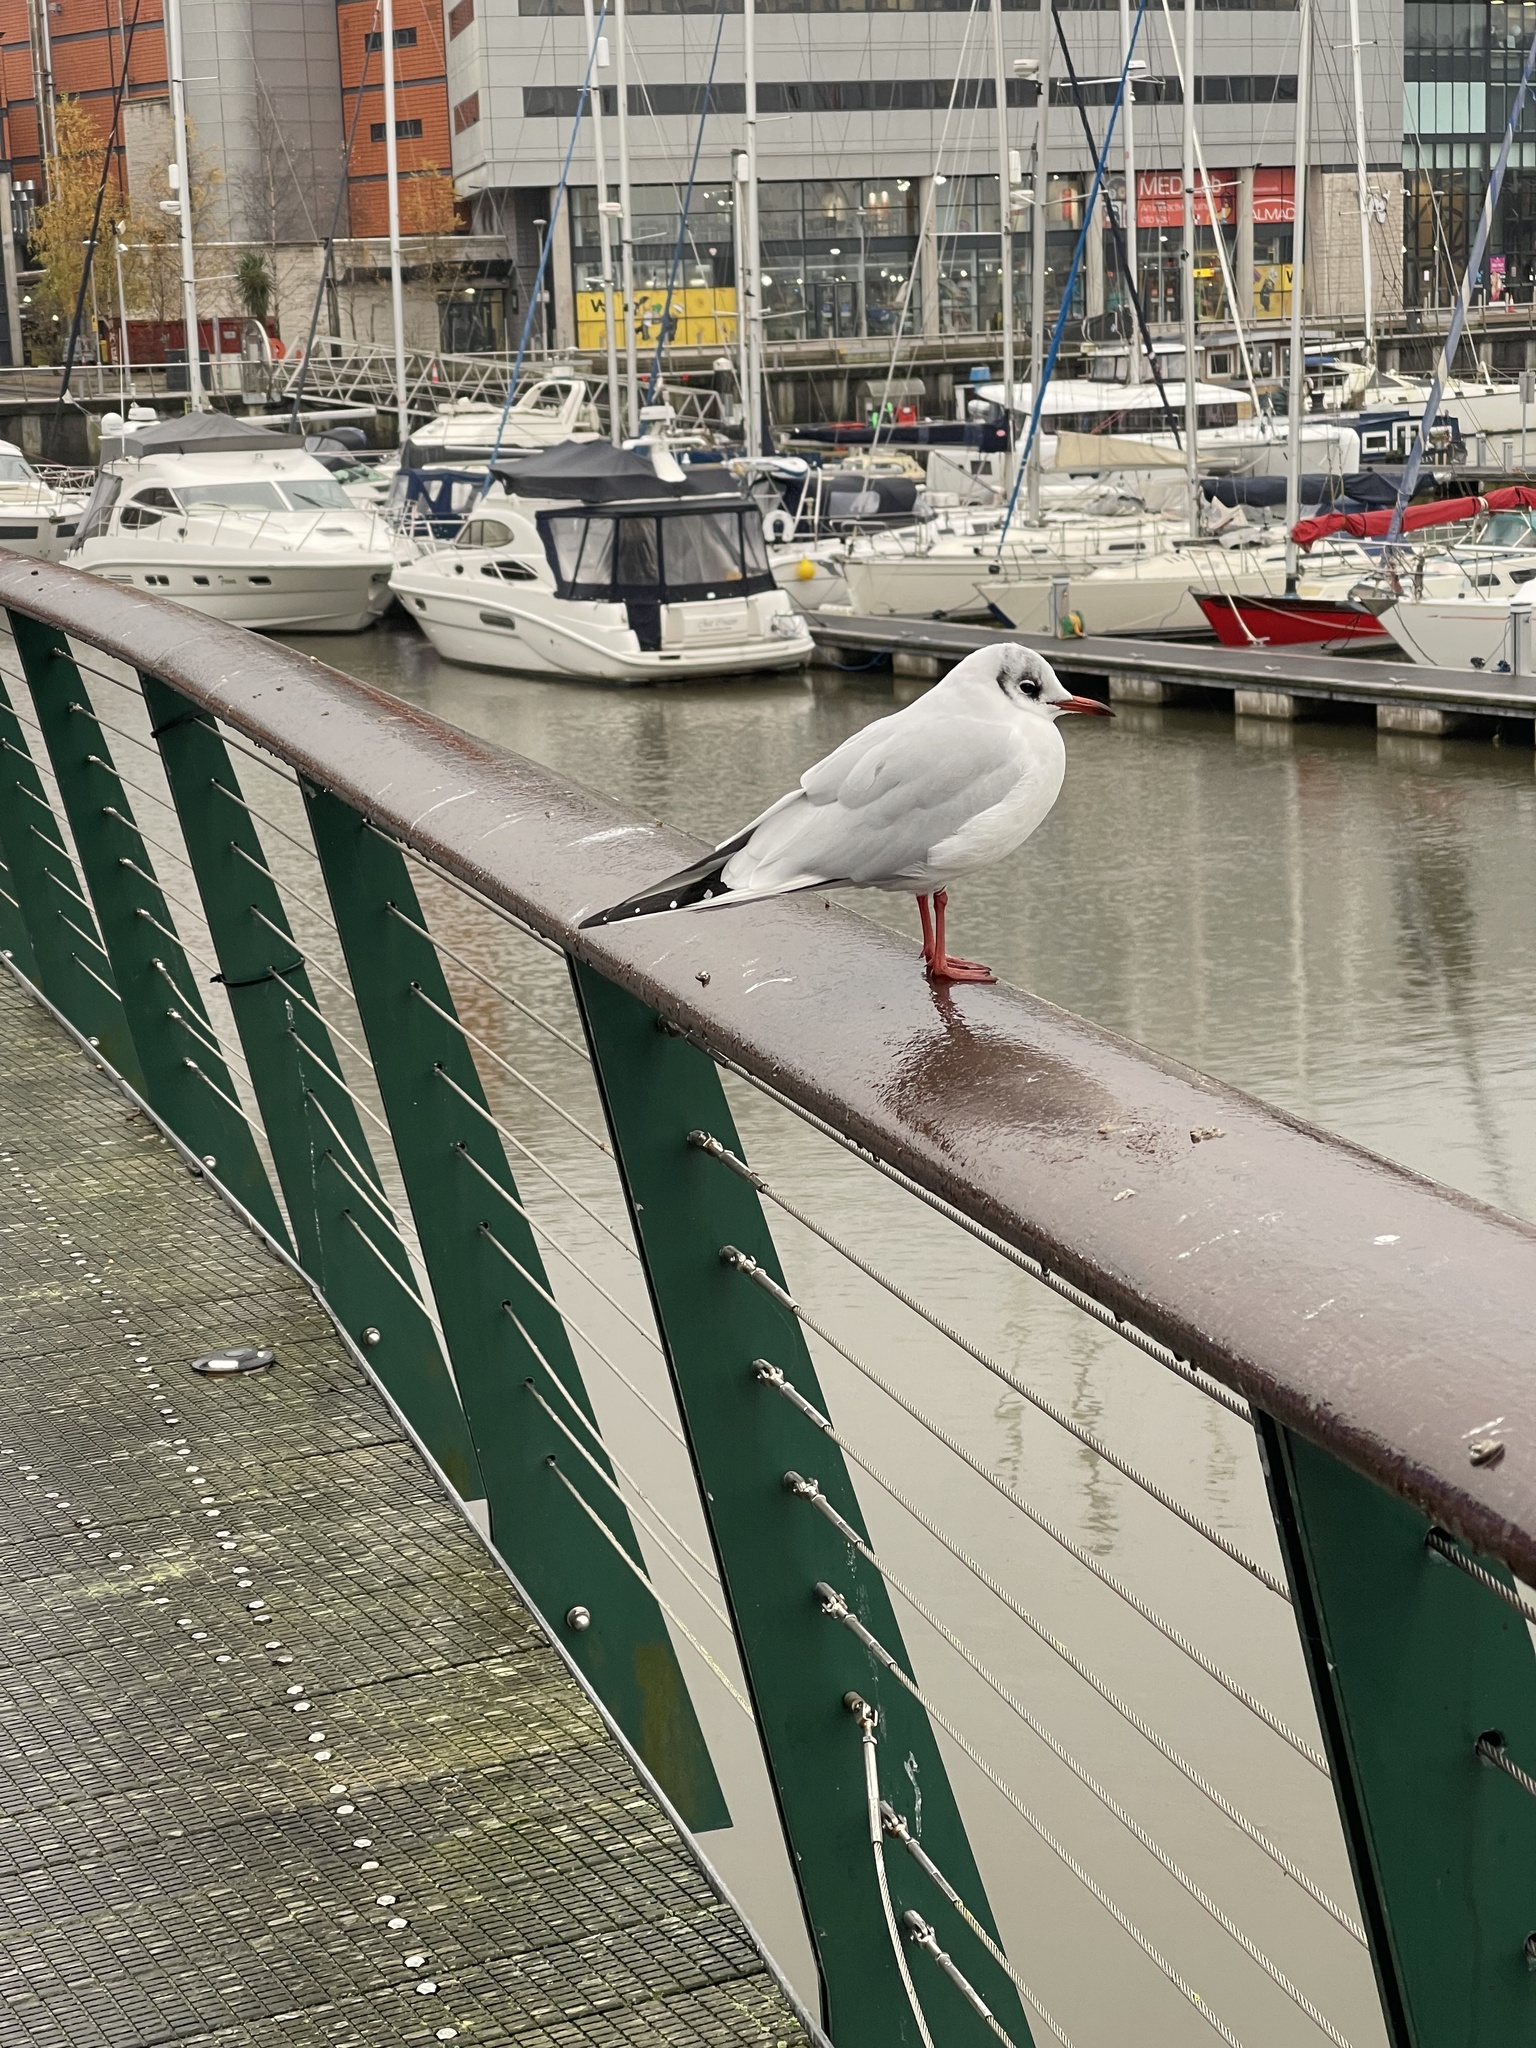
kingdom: Animalia
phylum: Chordata
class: Aves
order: Charadriiformes
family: Laridae
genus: Chroicocephalus
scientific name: Chroicocephalus ridibundus
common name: Black-headed gull
